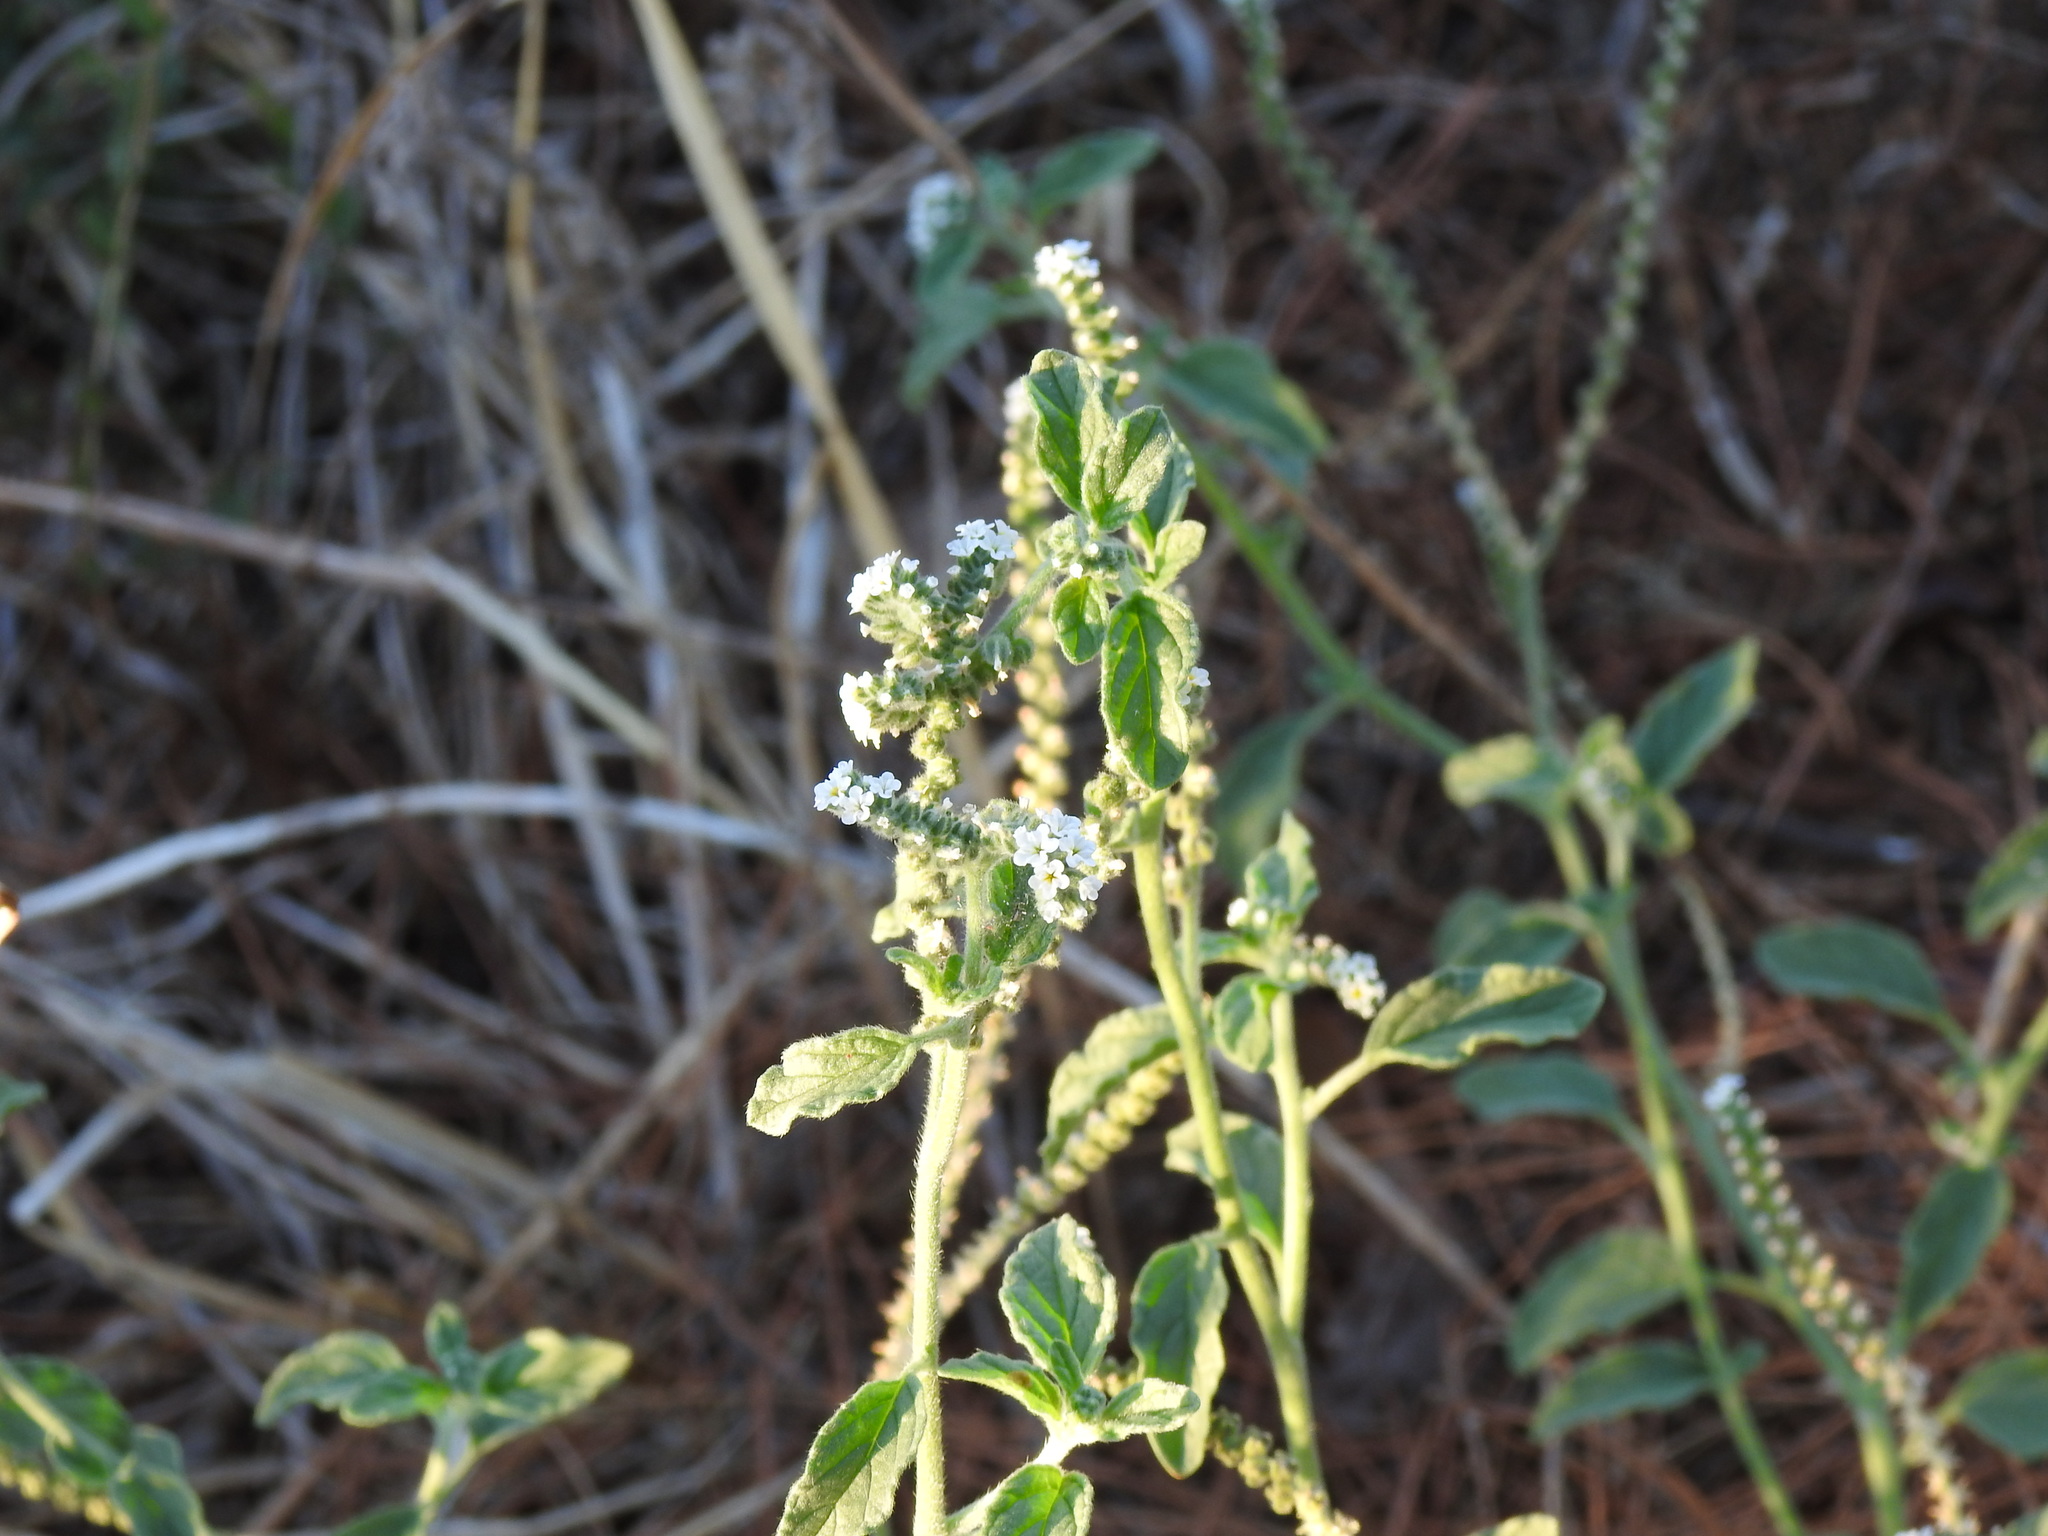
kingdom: Plantae
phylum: Tracheophyta
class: Magnoliopsida
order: Boraginales
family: Heliotropiaceae
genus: Heliotropium
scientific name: Heliotropium europaeum
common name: European heliotrope
